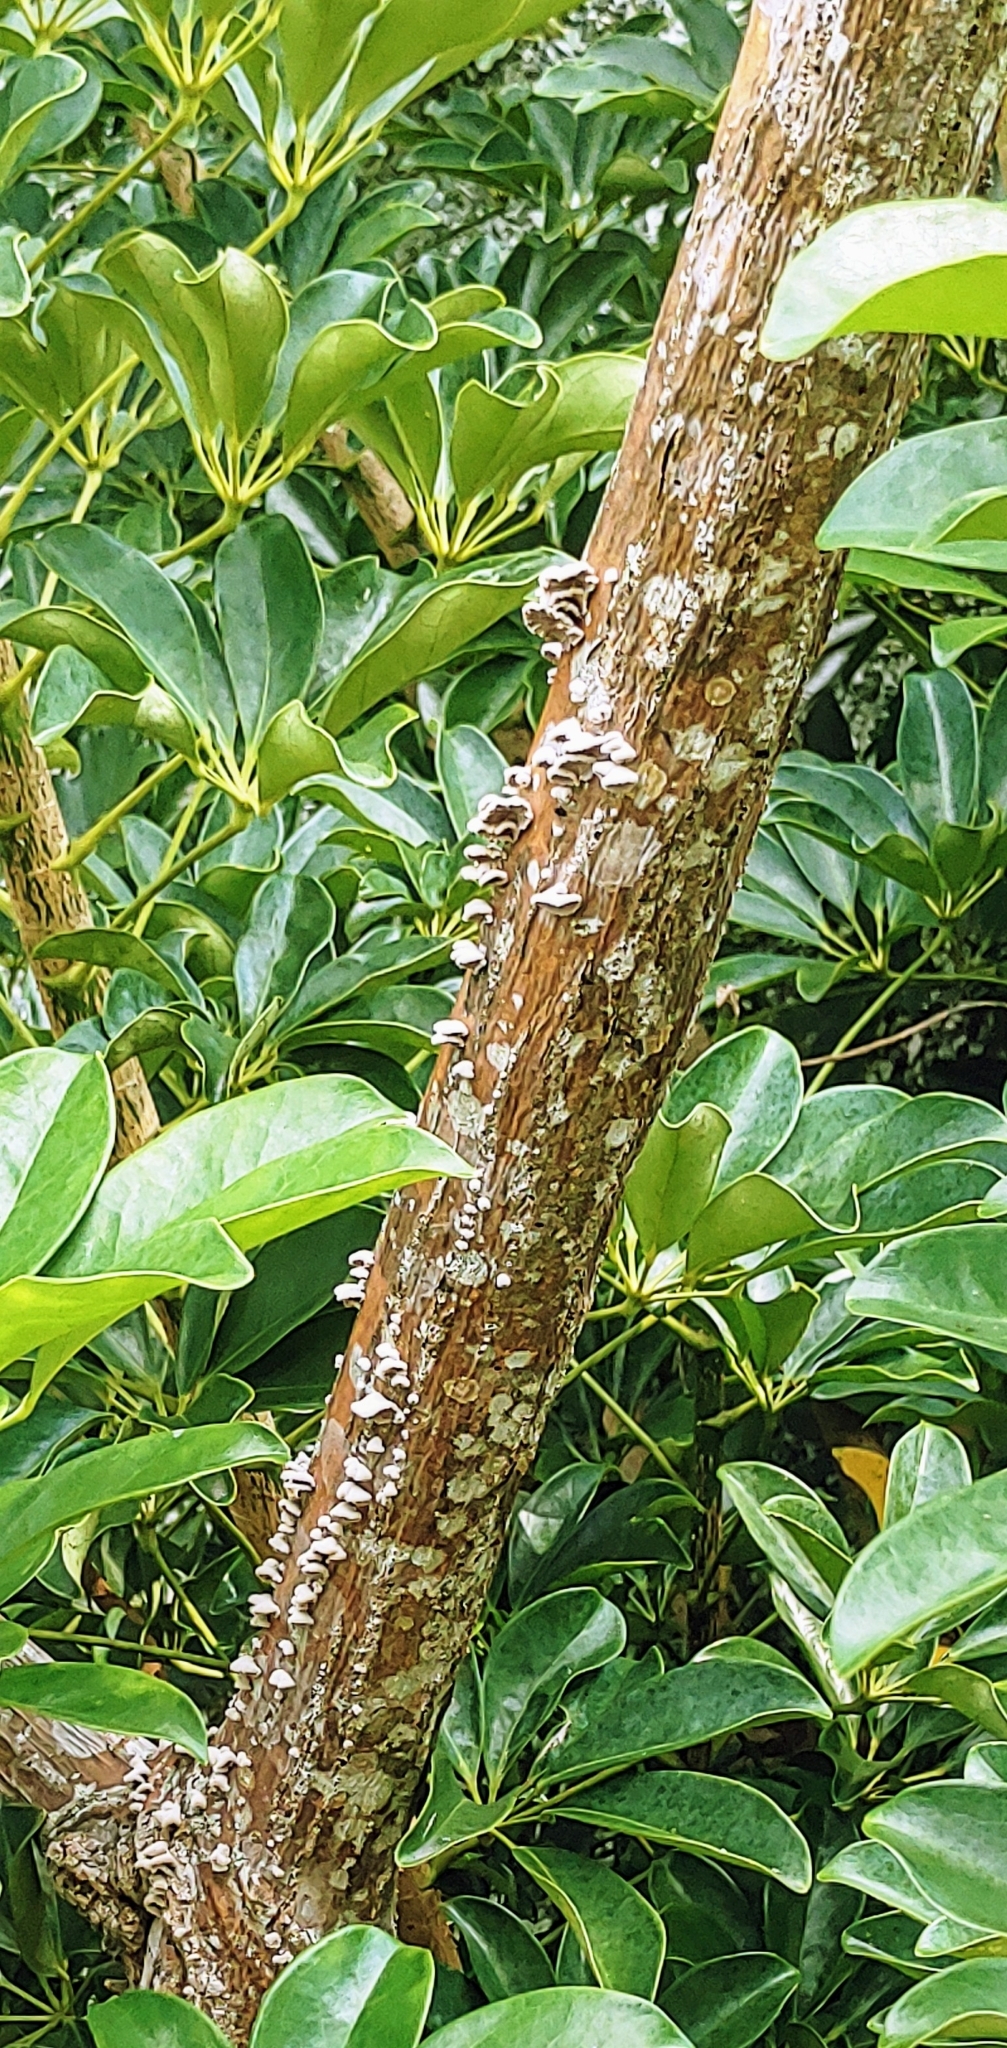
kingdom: Fungi
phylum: Basidiomycota
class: Agaricomycetes
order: Agaricales
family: Schizophyllaceae
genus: Schizophyllum
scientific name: Schizophyllum commune
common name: Common porecrust
